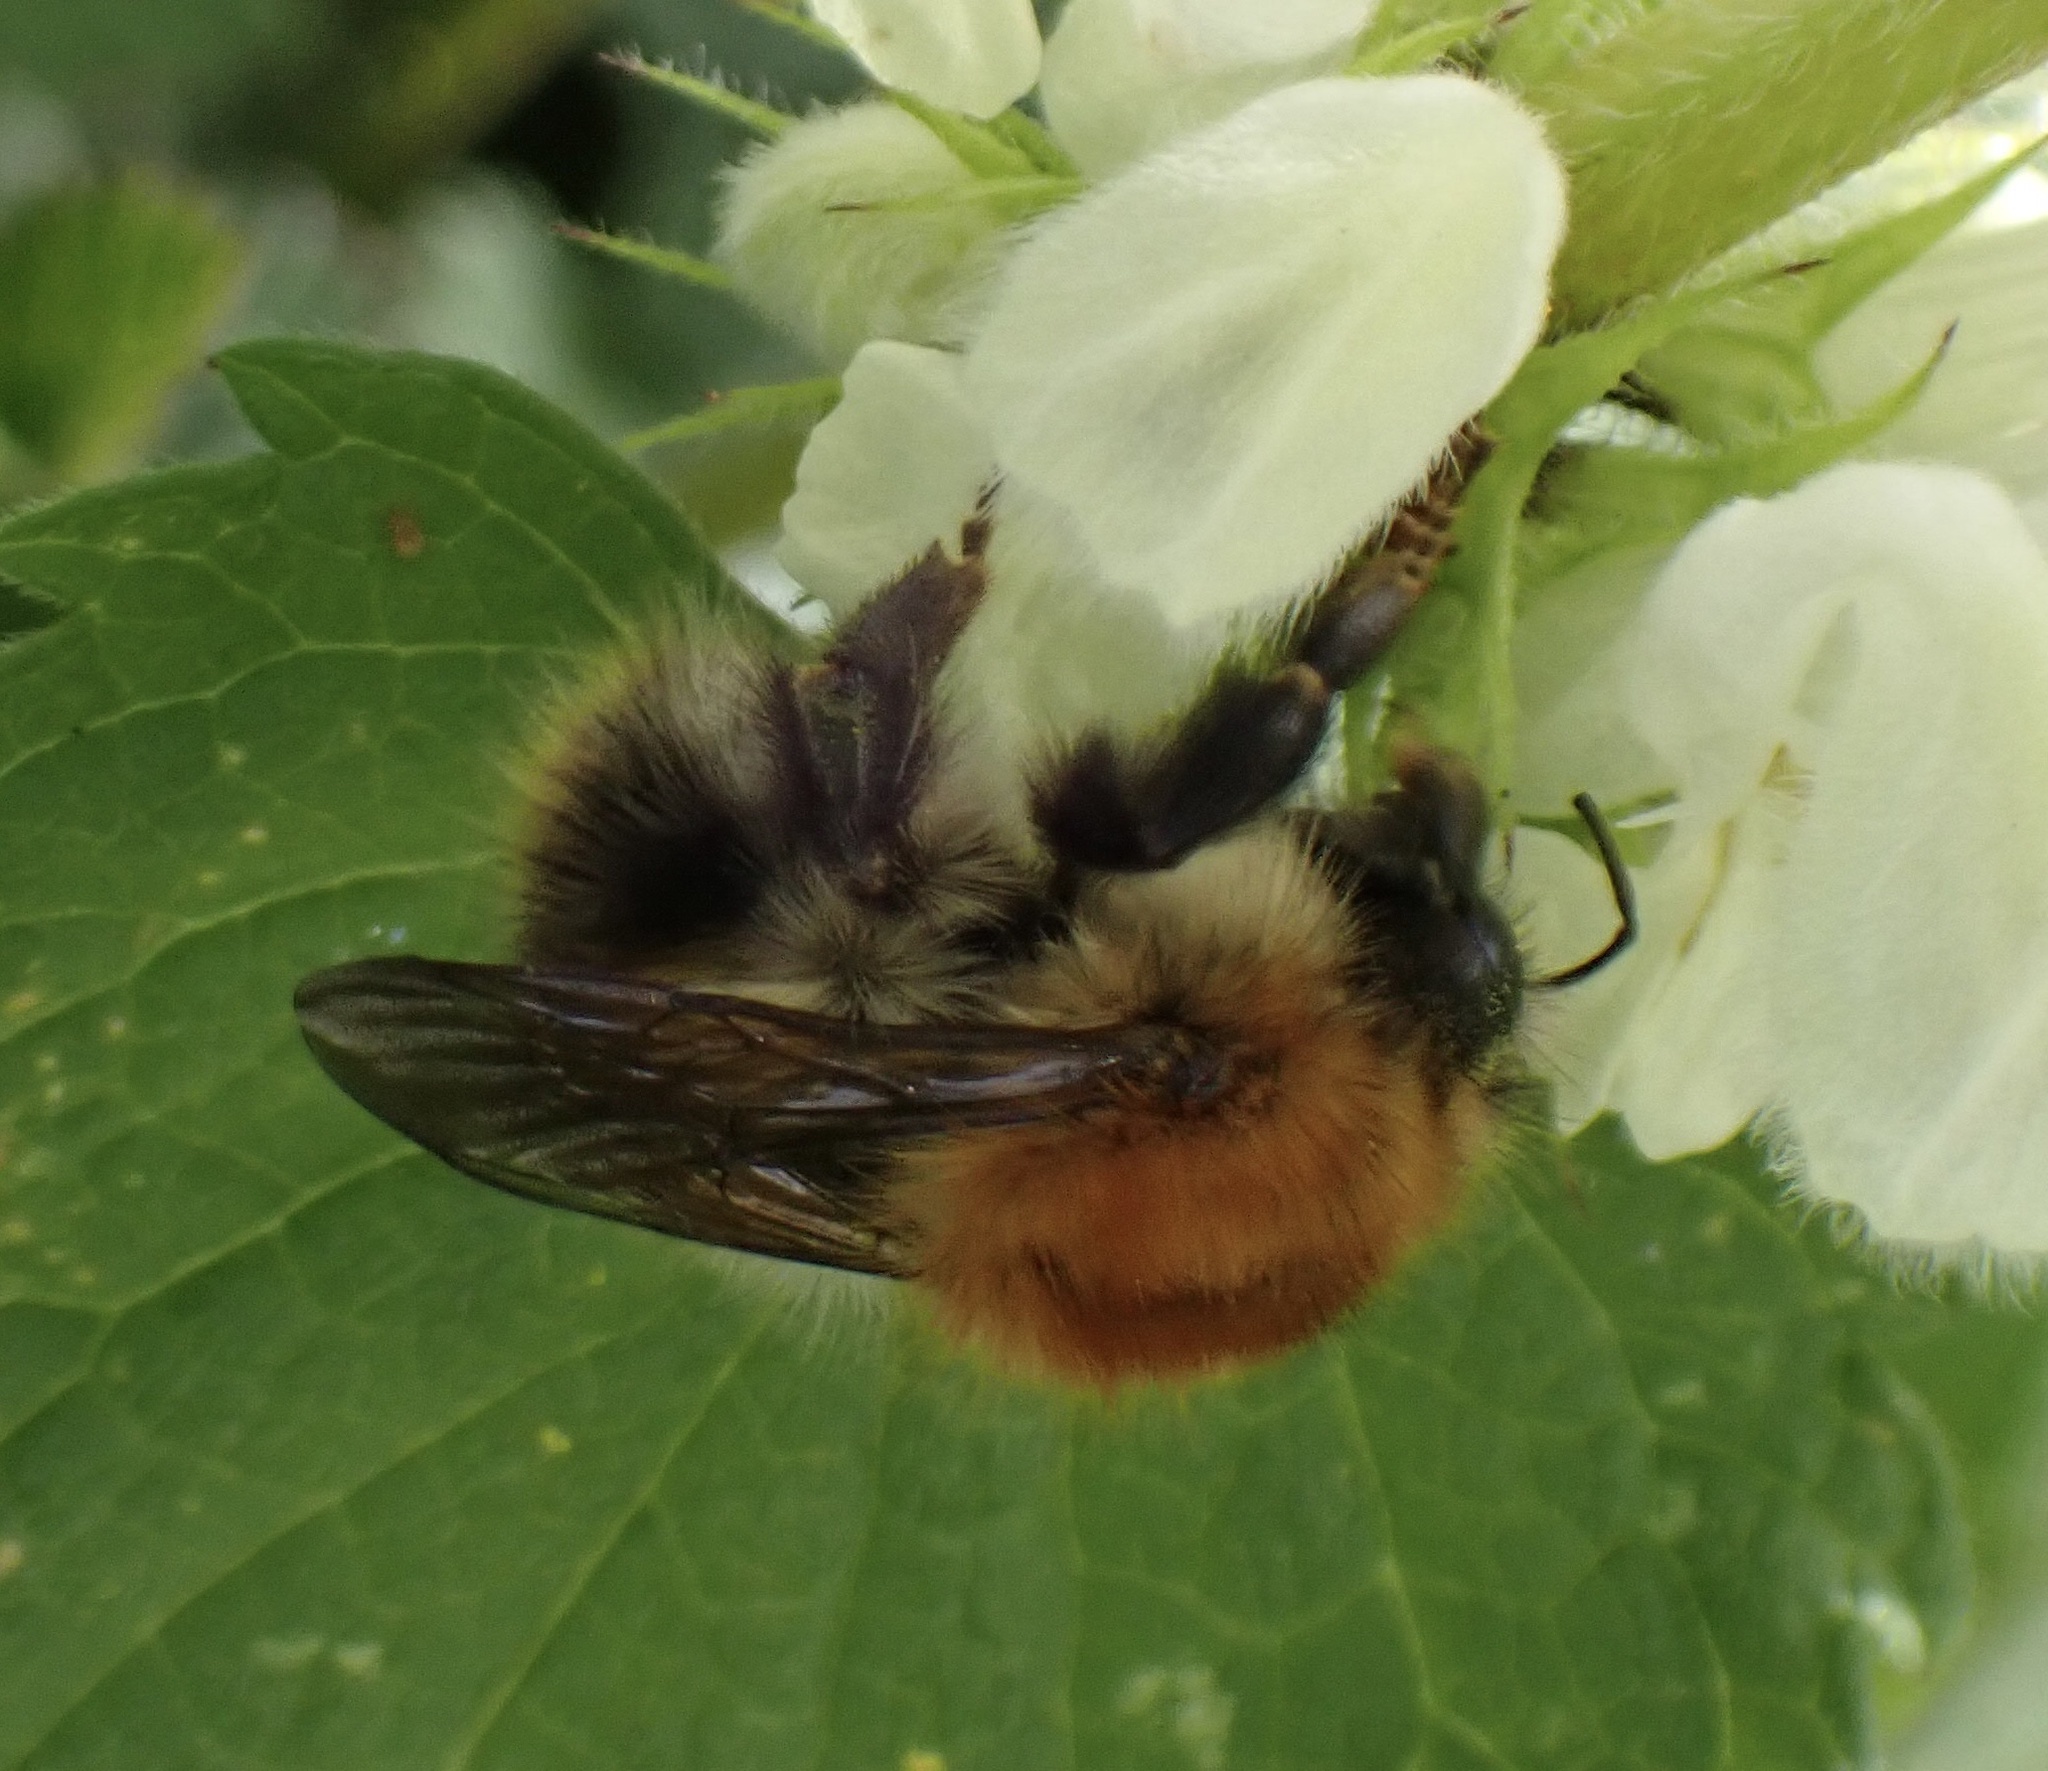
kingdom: Animalia
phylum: Arthropoda
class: Insecta
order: Hymenoptera
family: Apidae
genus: Bombus
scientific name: Bombus pascuorum
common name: Common carder bee
